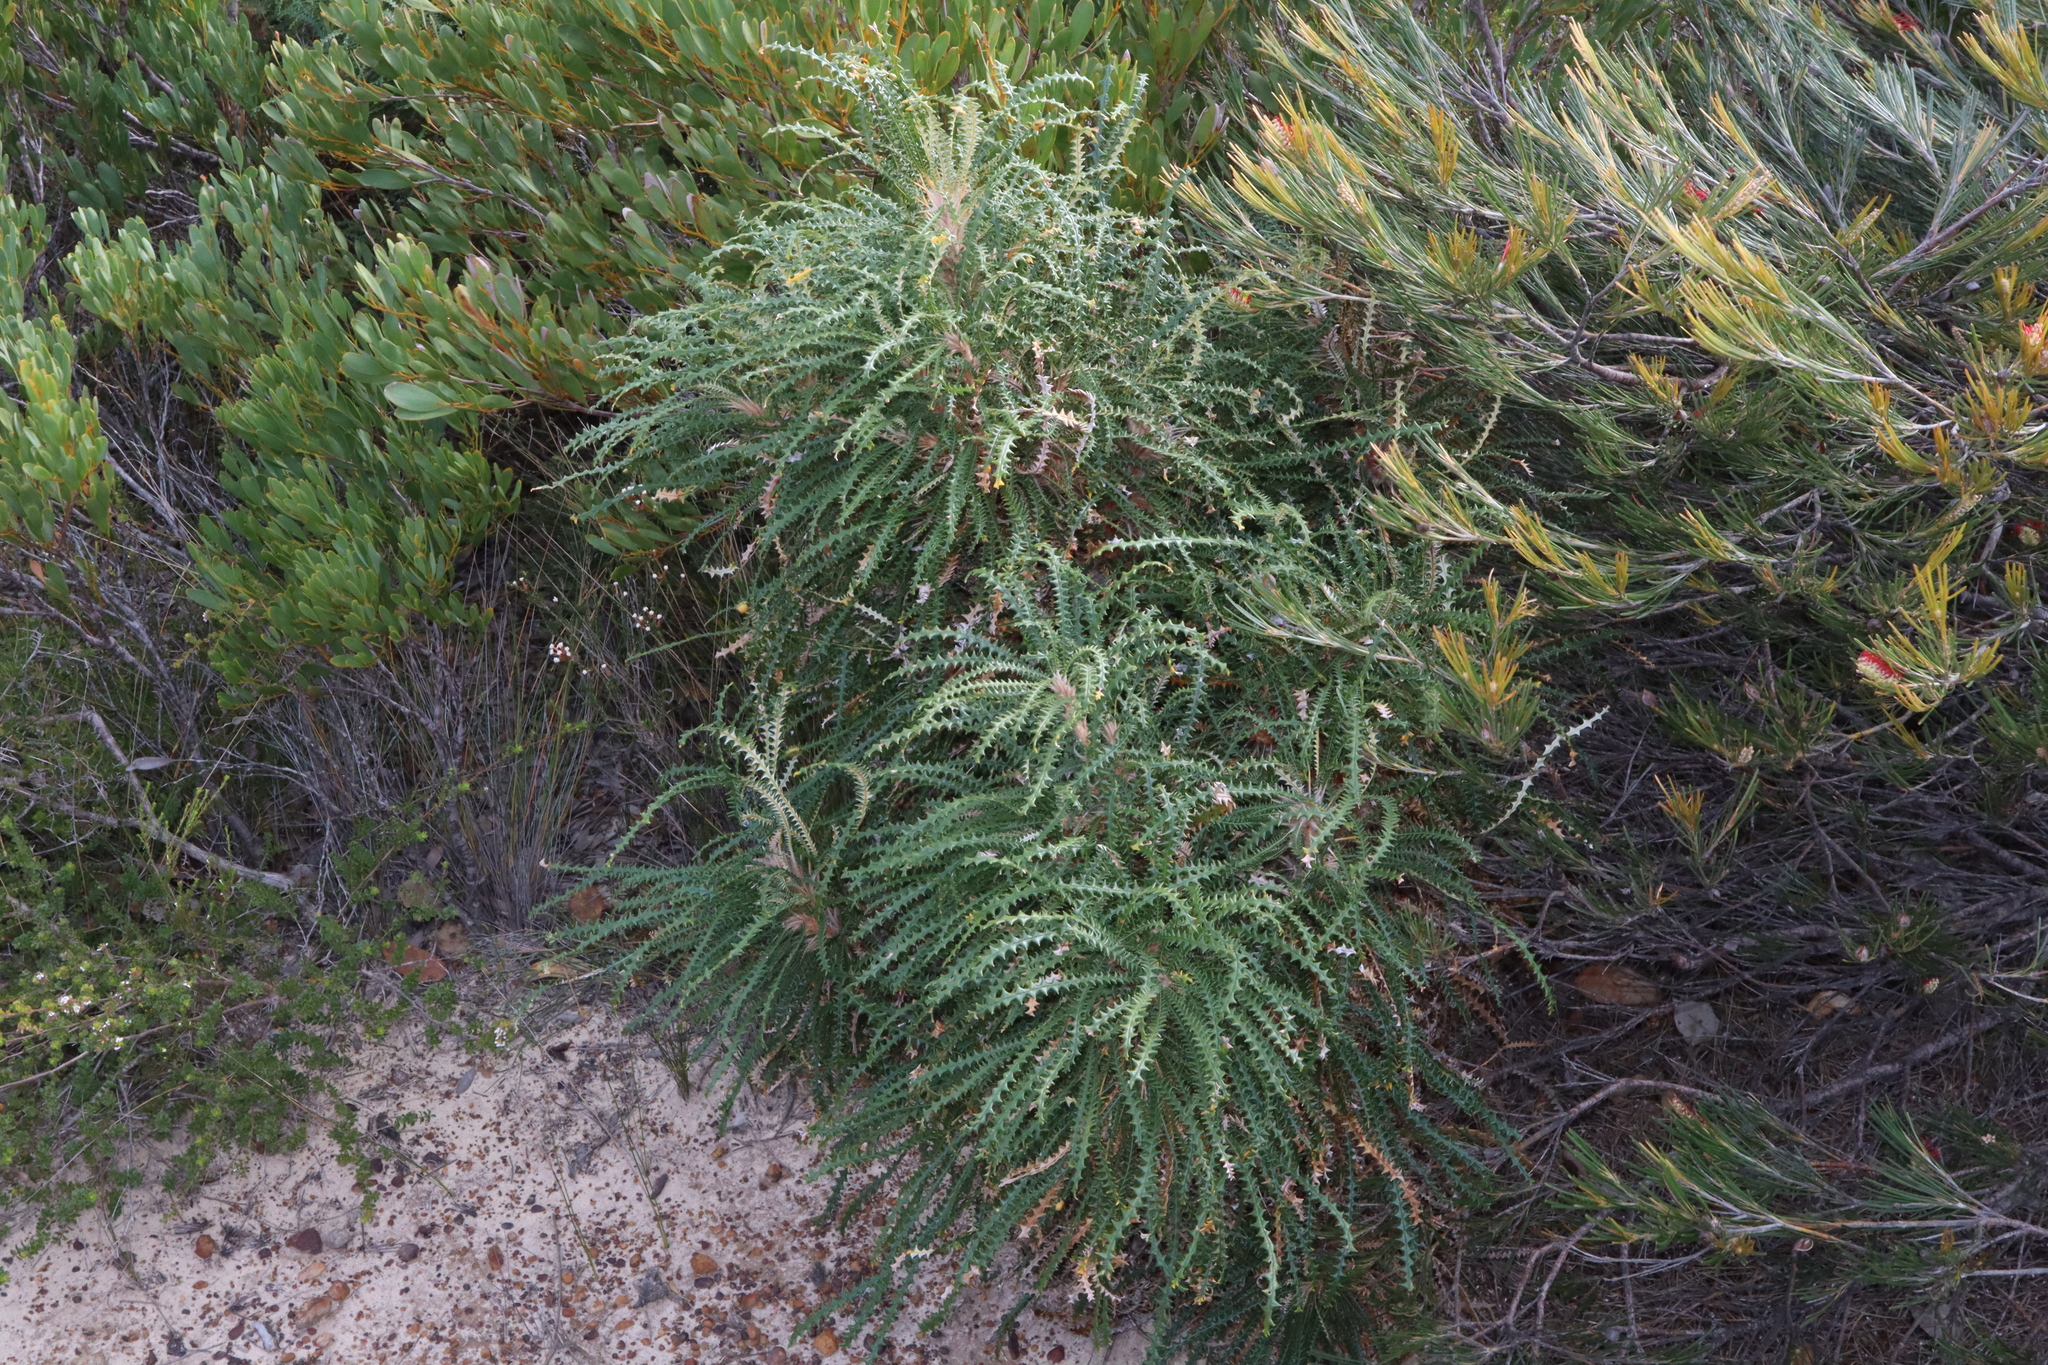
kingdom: Plantae
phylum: Tracheophyta
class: Magnoliopsida
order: Proteales
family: Proteaceae
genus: Banksia
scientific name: Banksia plumosa
